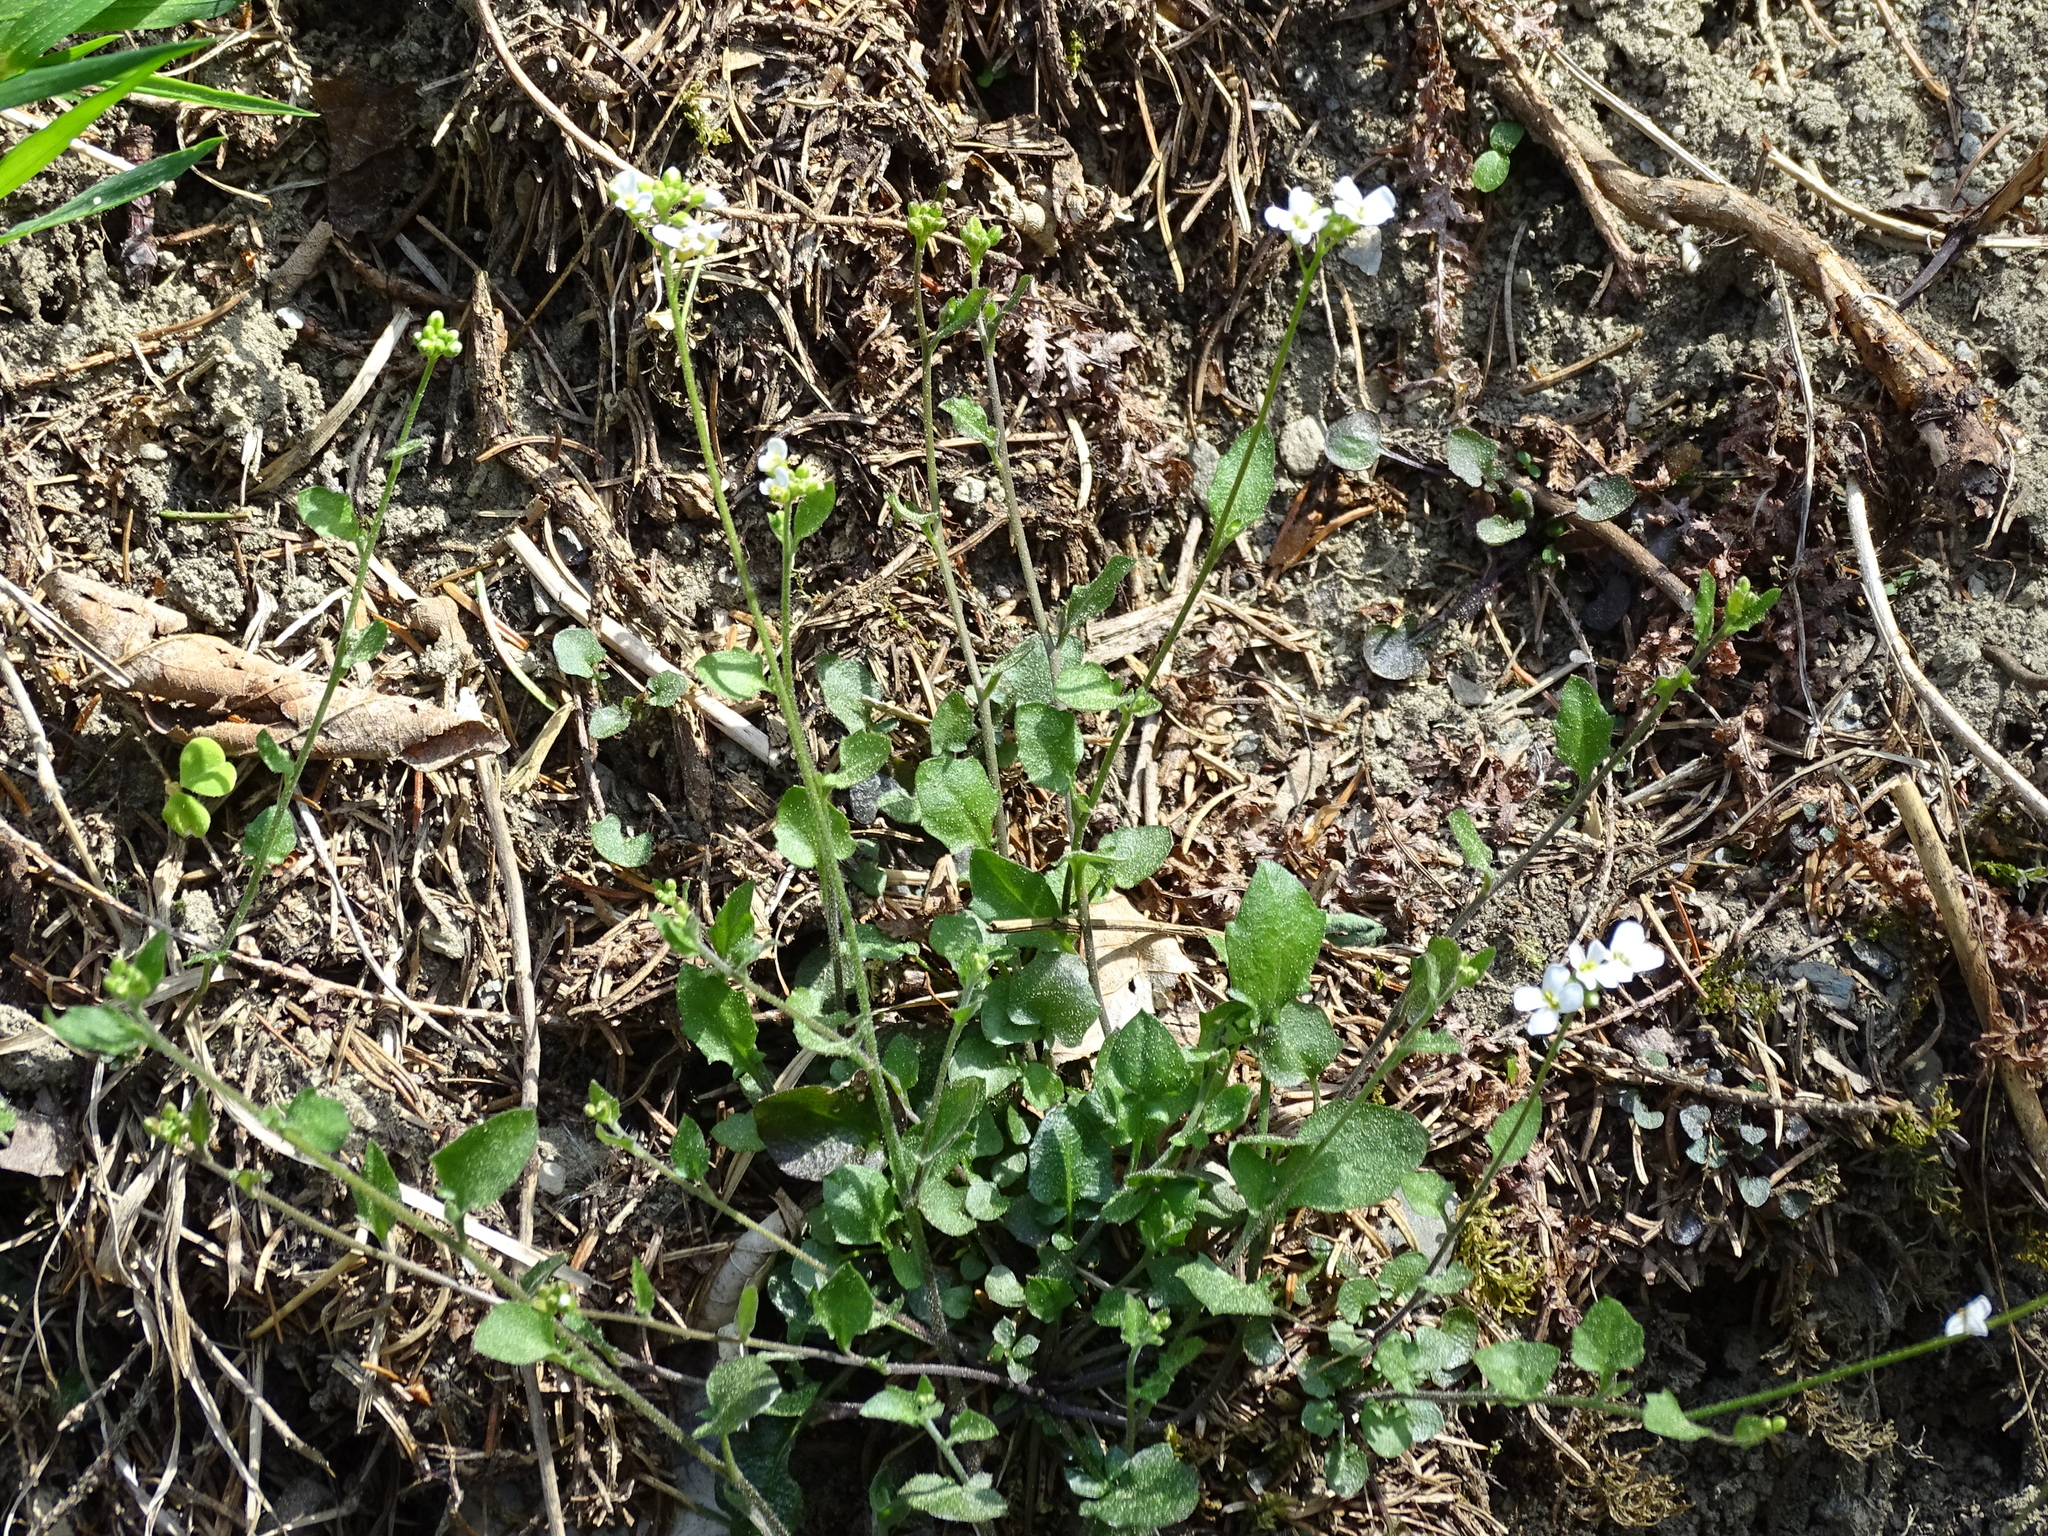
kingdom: Plantae
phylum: Tracheophyta
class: Magnoliopsida
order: Brassicales
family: Brassicaceae
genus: Arabidopsis
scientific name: Arabidopsis halleri
